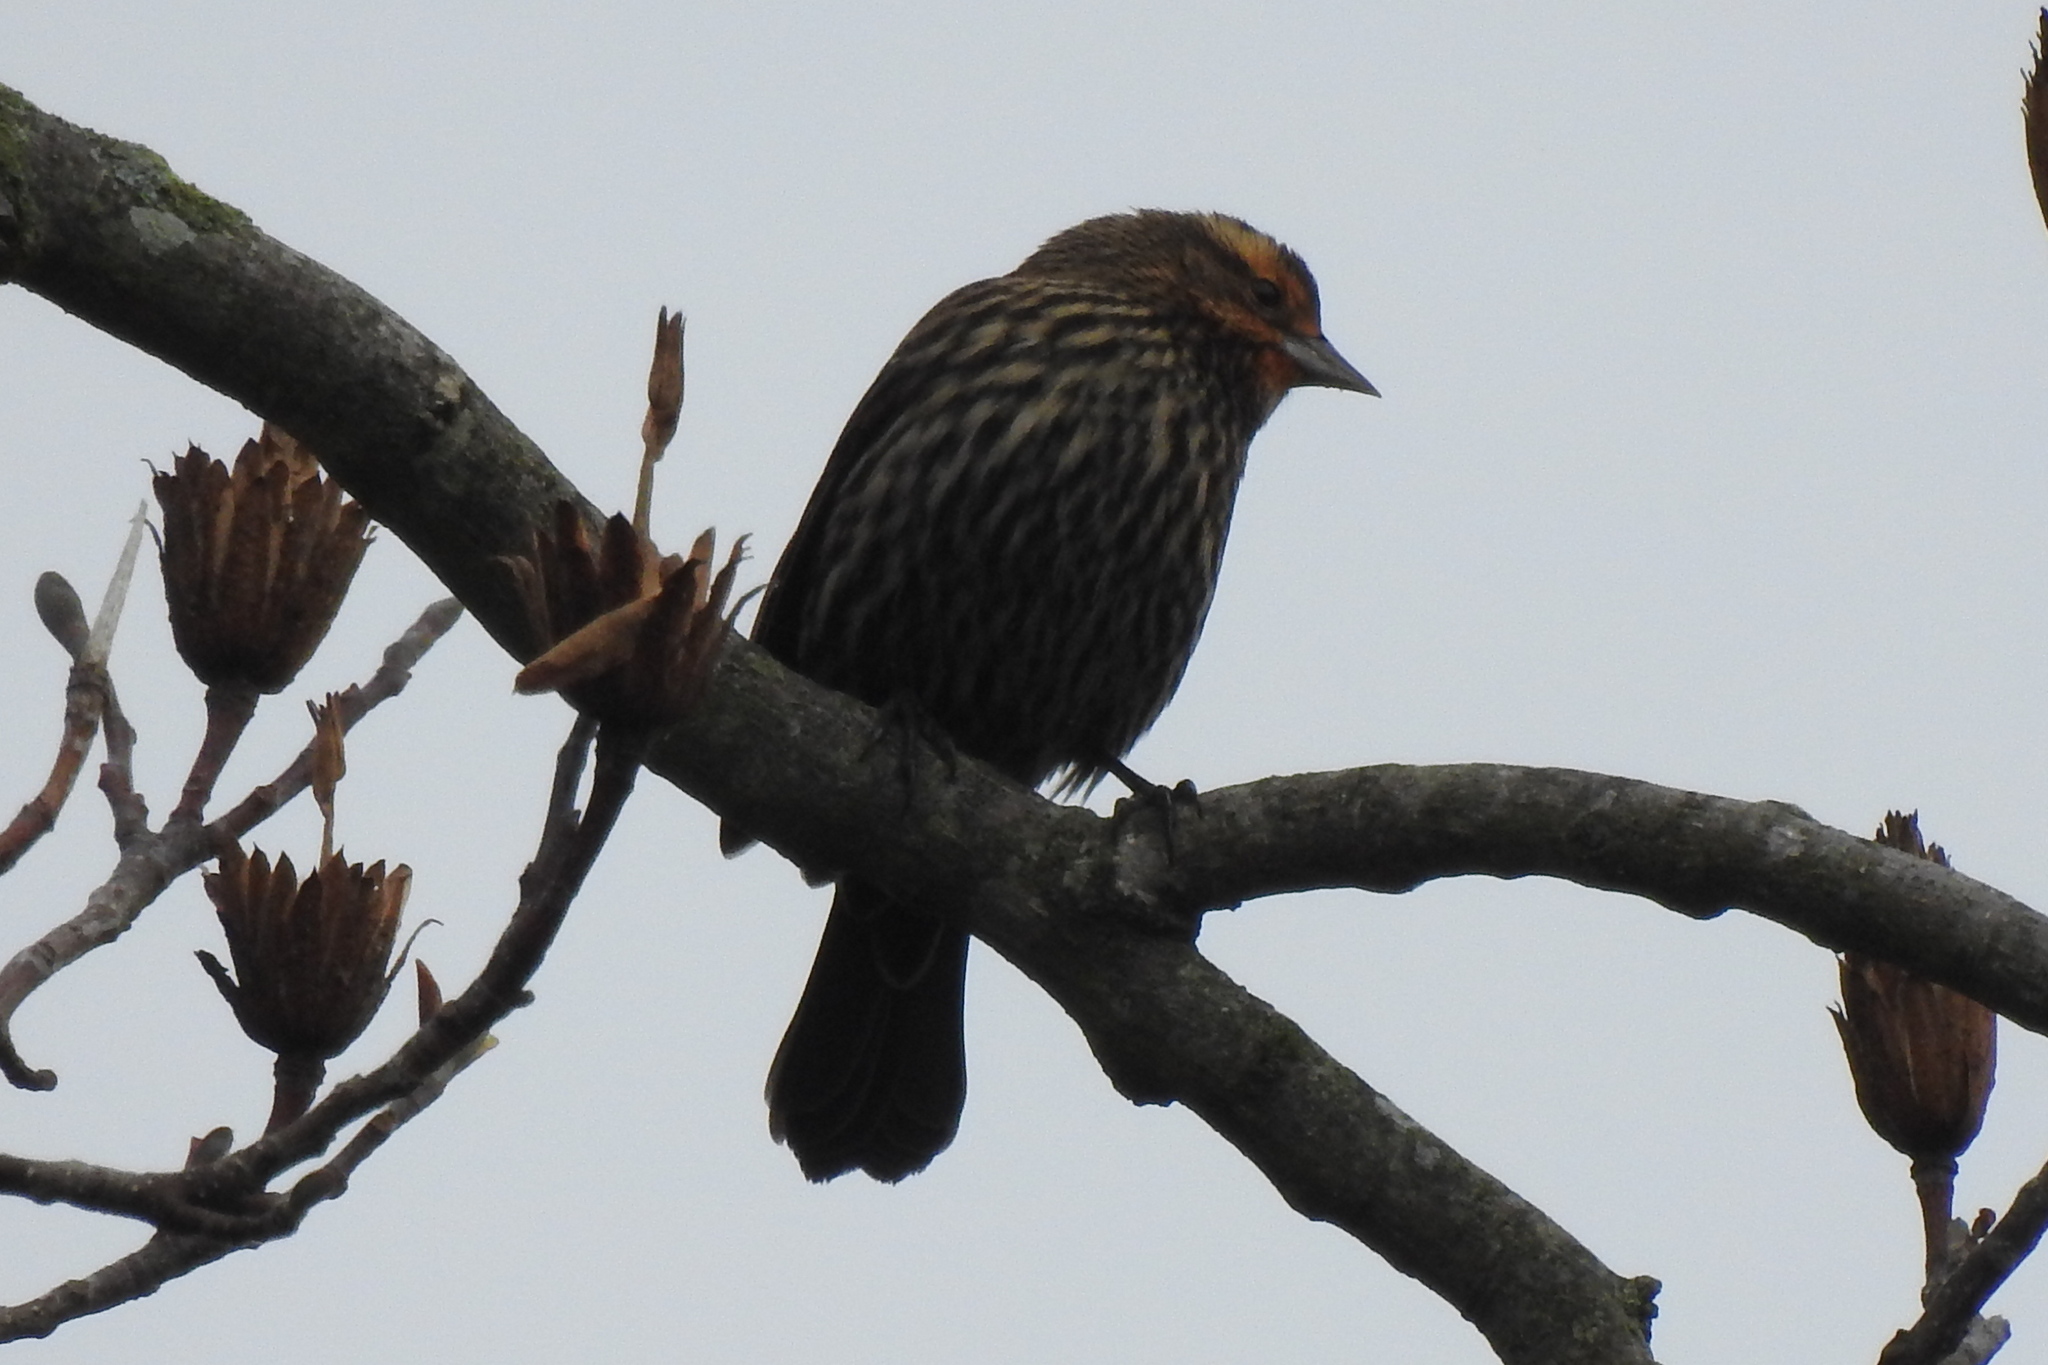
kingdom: Animalia
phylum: Chordata
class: Aves
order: Passeriformes
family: Icteridae
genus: Agelaius
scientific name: Agelaius phoeniceus
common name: Red-winged blackbird
